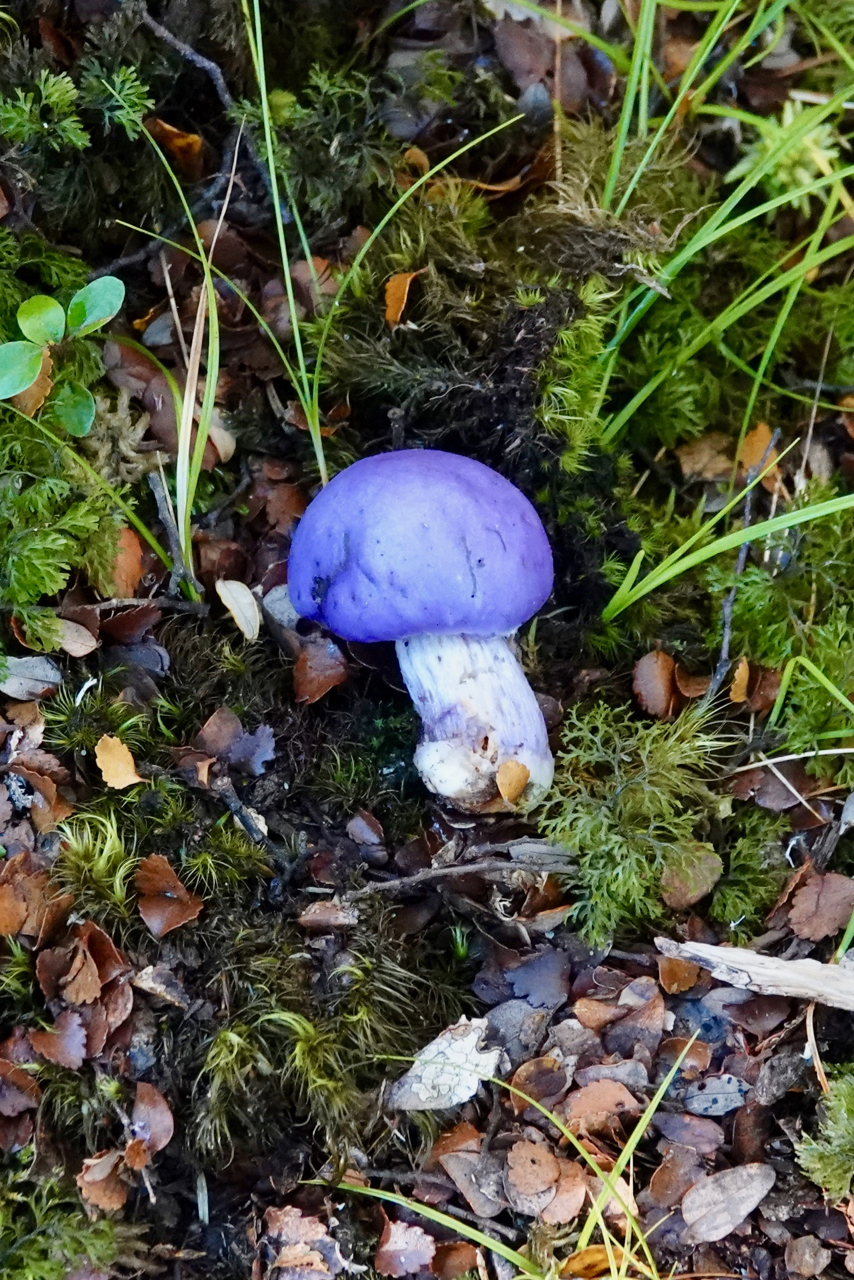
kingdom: Fungi
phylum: Basidiomycota
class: Agaricomycetes
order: Agaricales
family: Cortinariaceae
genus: Cortinarius
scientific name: Cortinarius
